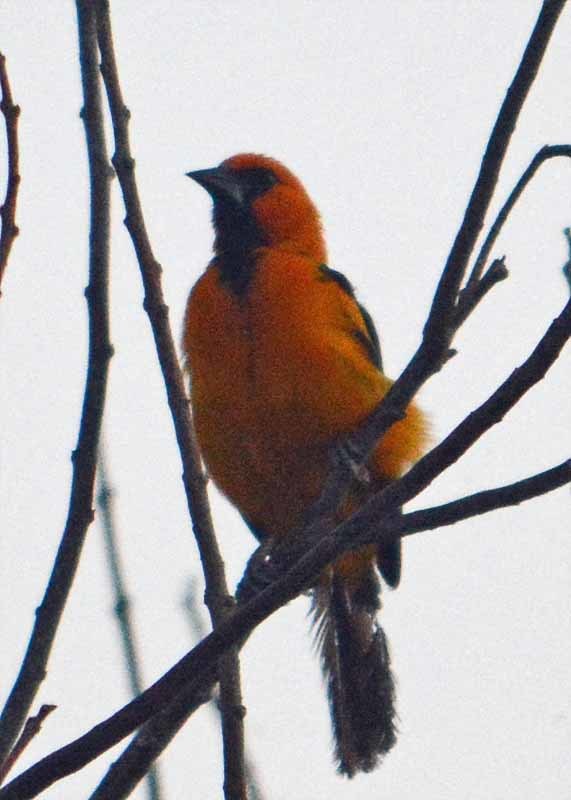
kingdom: Animalia
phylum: Chordata
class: Aves
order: Passeriformes
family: Icteridae
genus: Icterus
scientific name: Icterus gularis
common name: Altamira oriole
